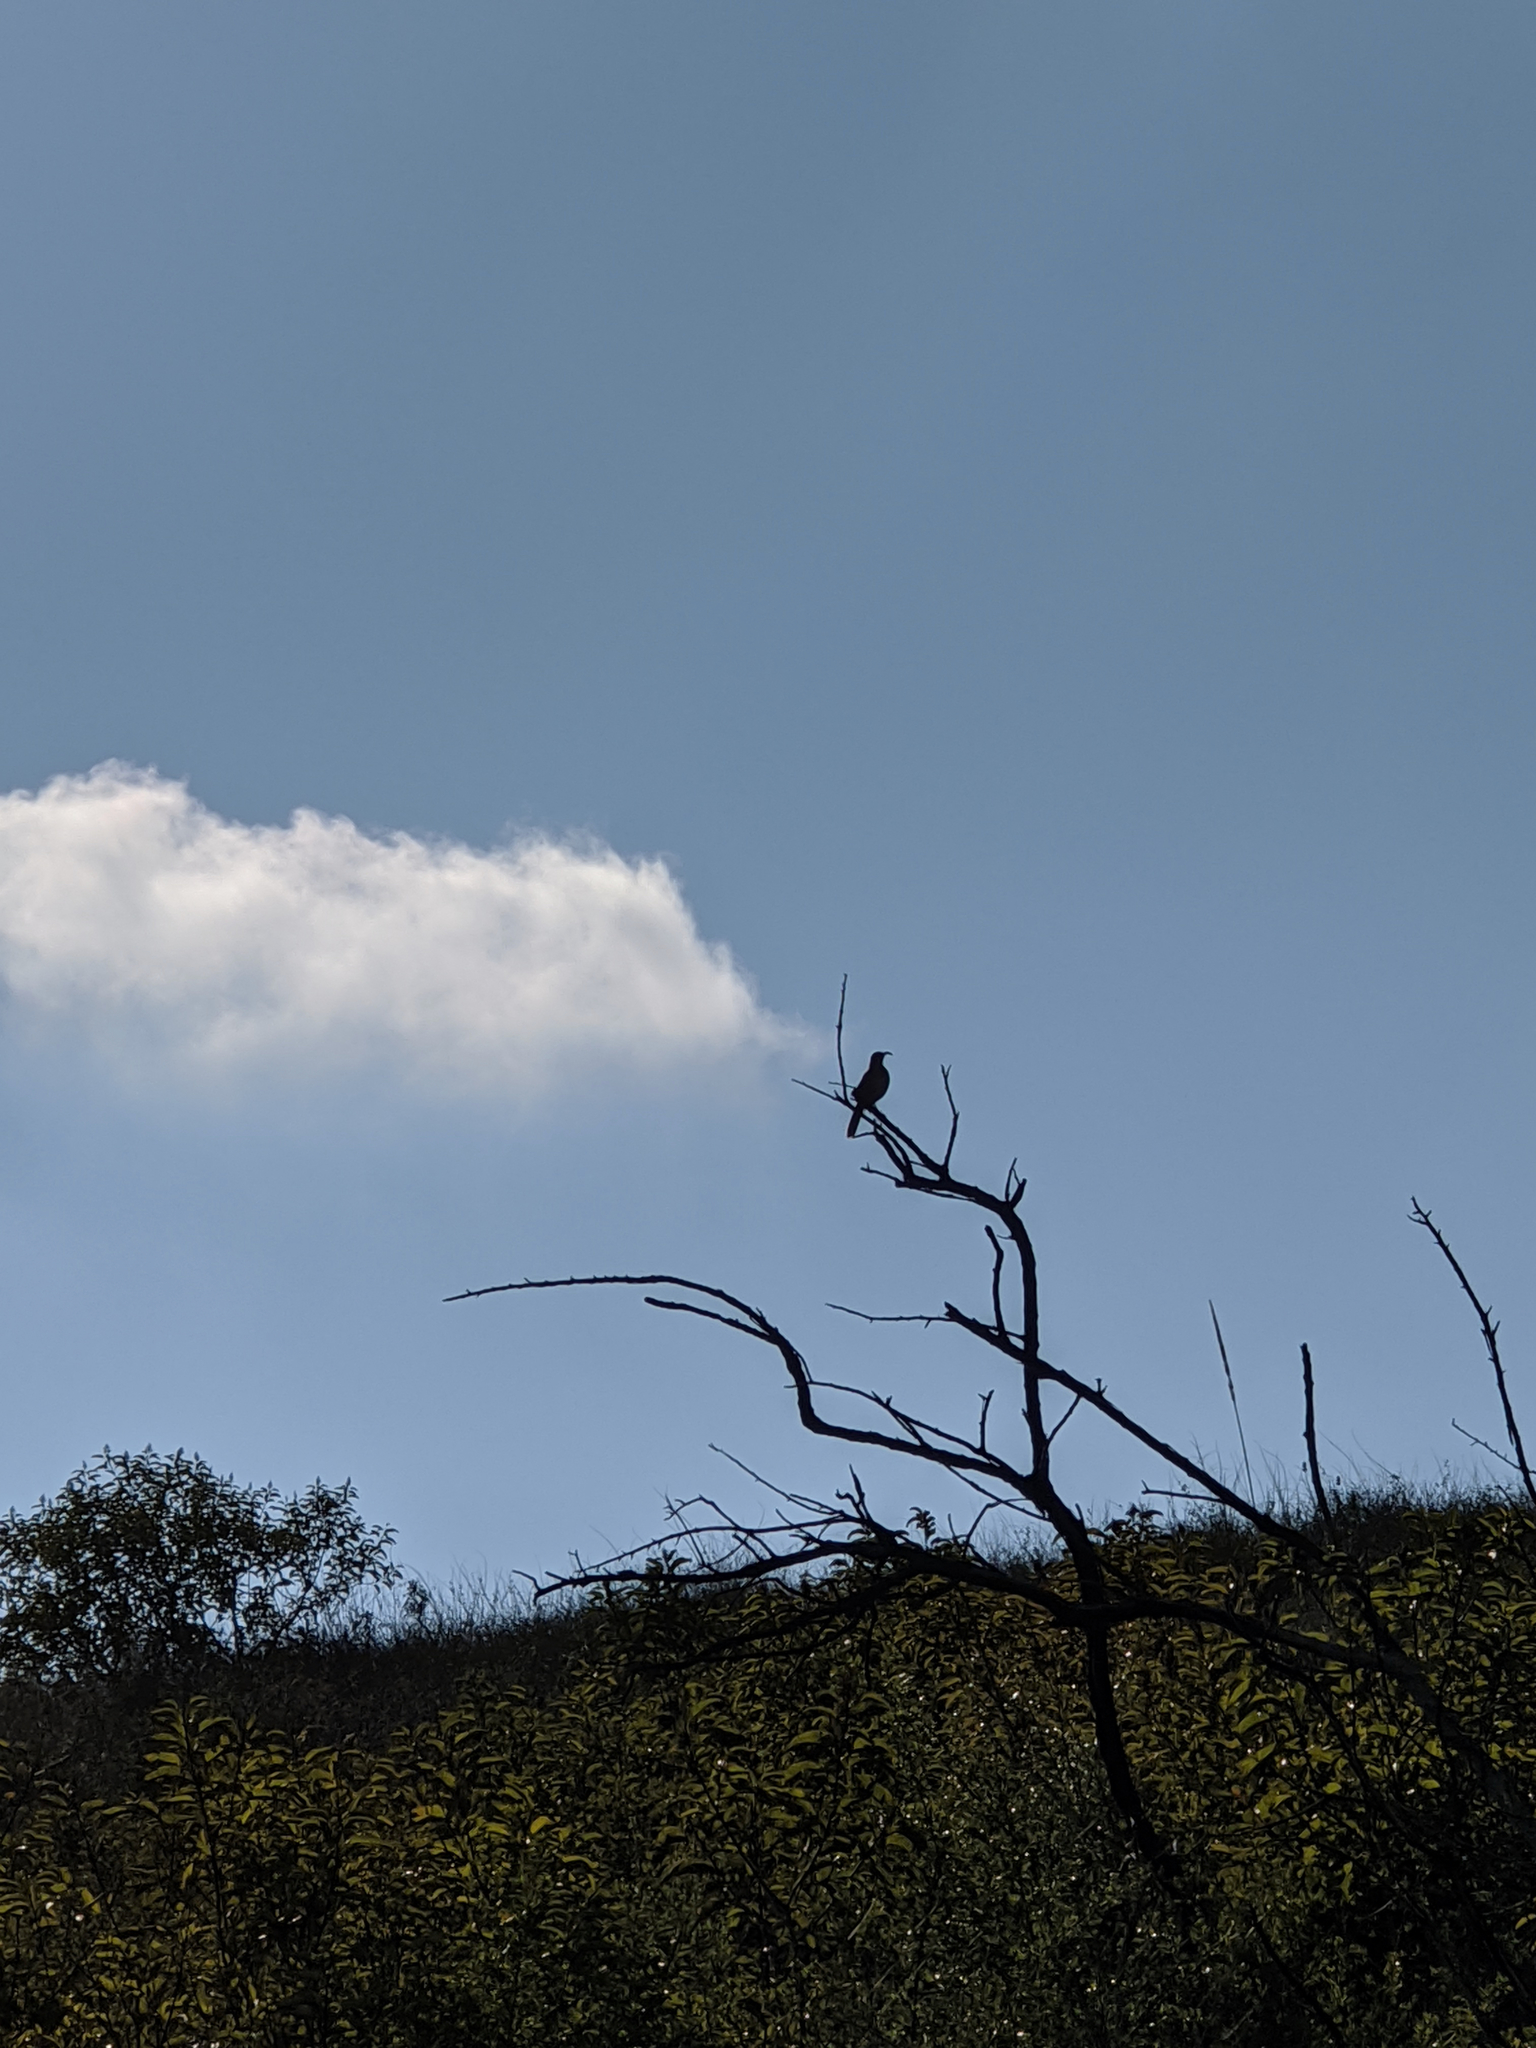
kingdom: Animalia
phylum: Chordata
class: Aves
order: Passeriformes
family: Mimidae
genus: Toxostoma
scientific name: Toxostoma redivivum
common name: California thrasher
